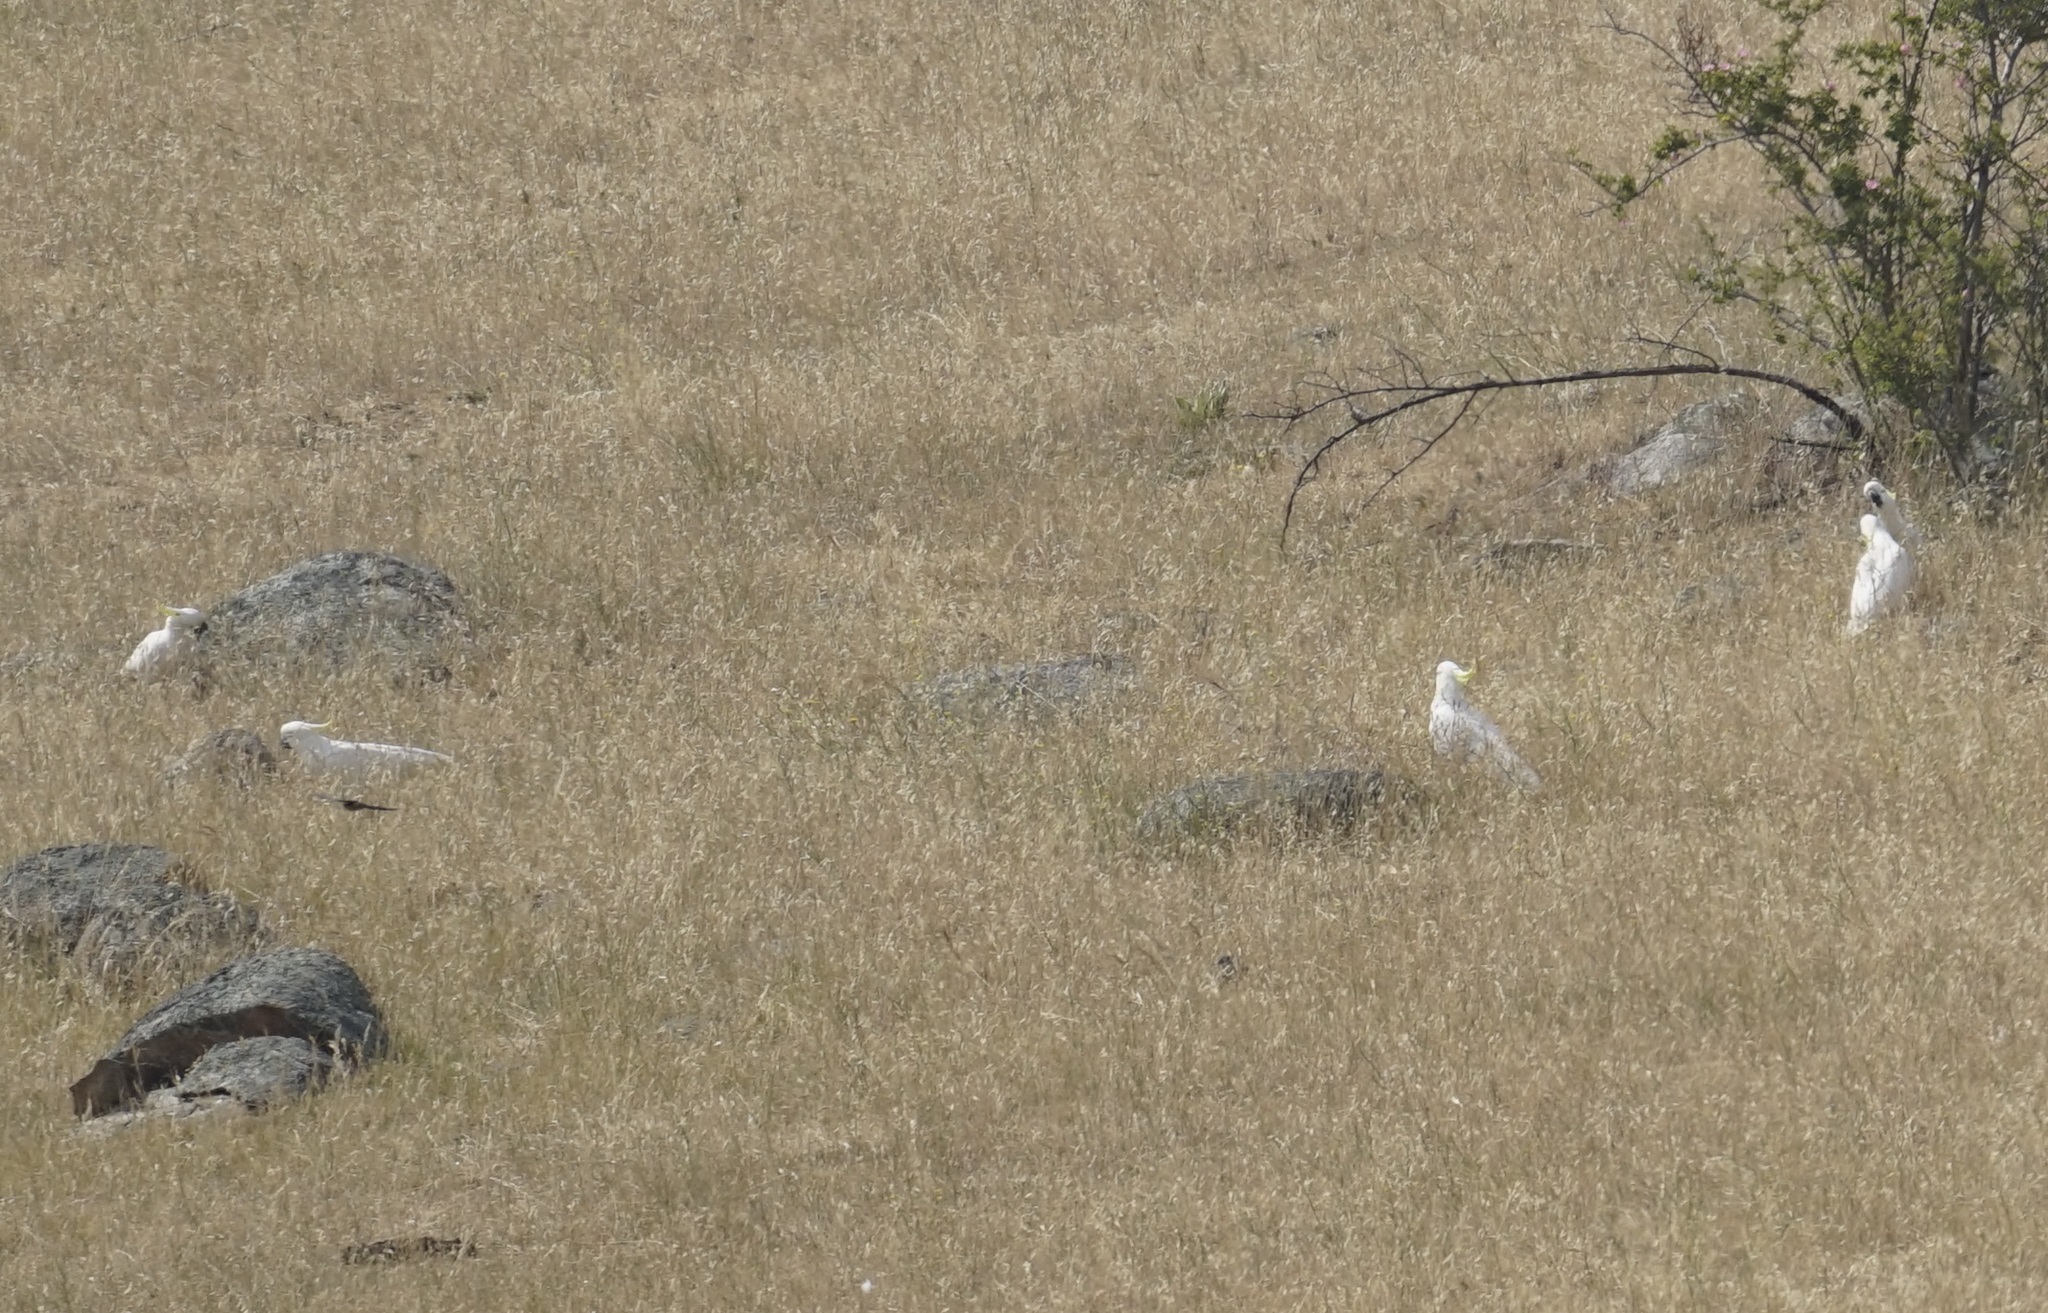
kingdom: Animalia
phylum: Chordata
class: Aves
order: Psittaciformes
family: Psittacidae
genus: Cacatua
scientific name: Cacatua galerita
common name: Sulphur-crested cockatoo
